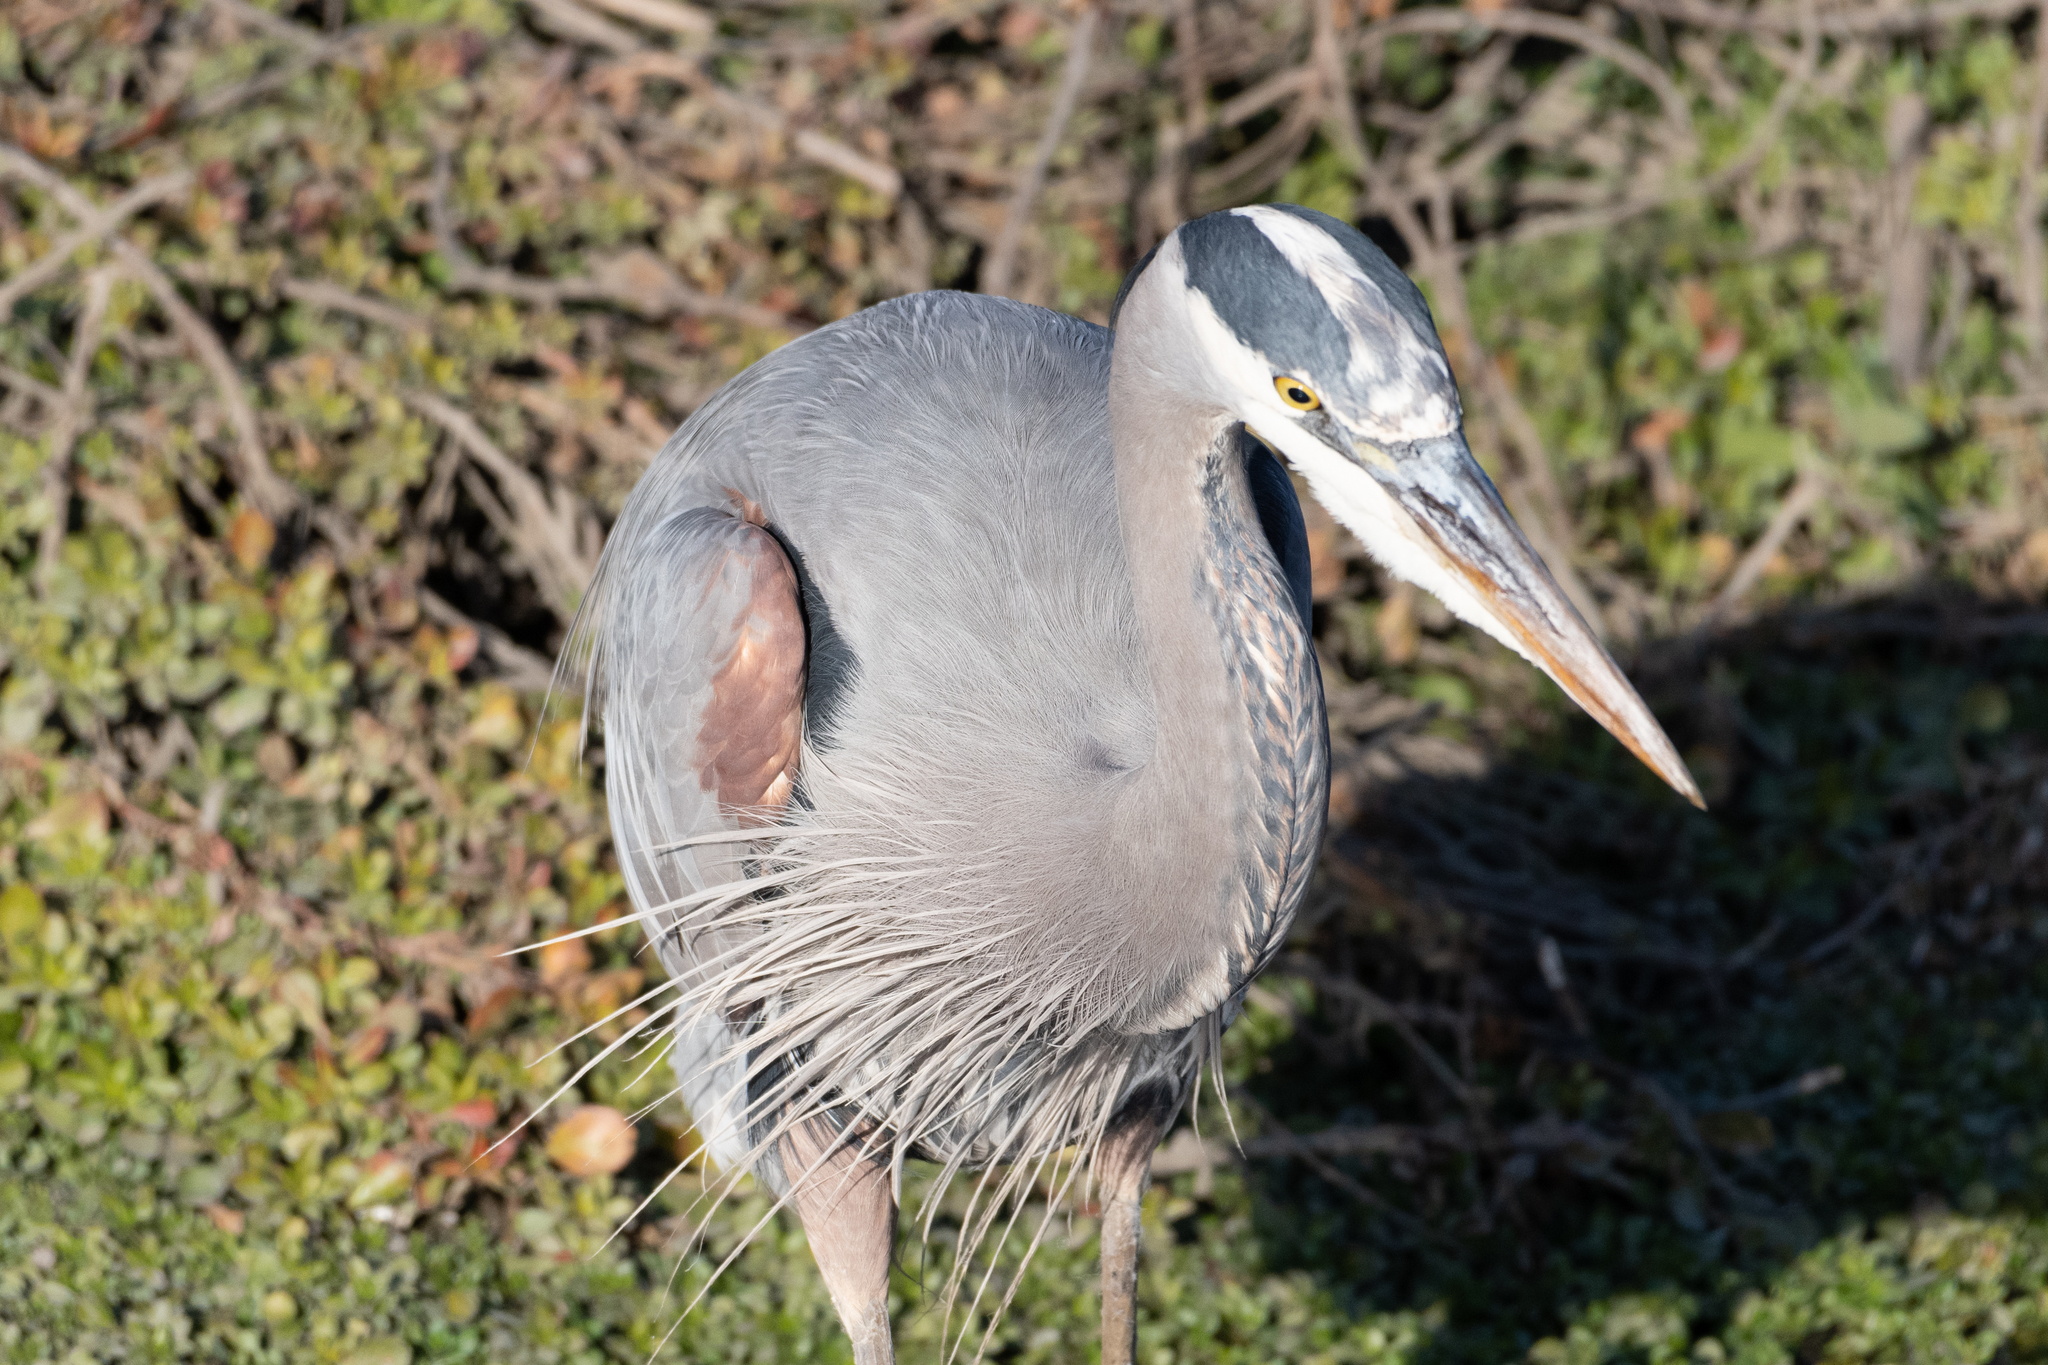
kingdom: Animalia
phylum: Chordata
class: Aves
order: Pelecaniformes
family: Ardeidae
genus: Ardea
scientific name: Ardea herodias
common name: Great blue heron
